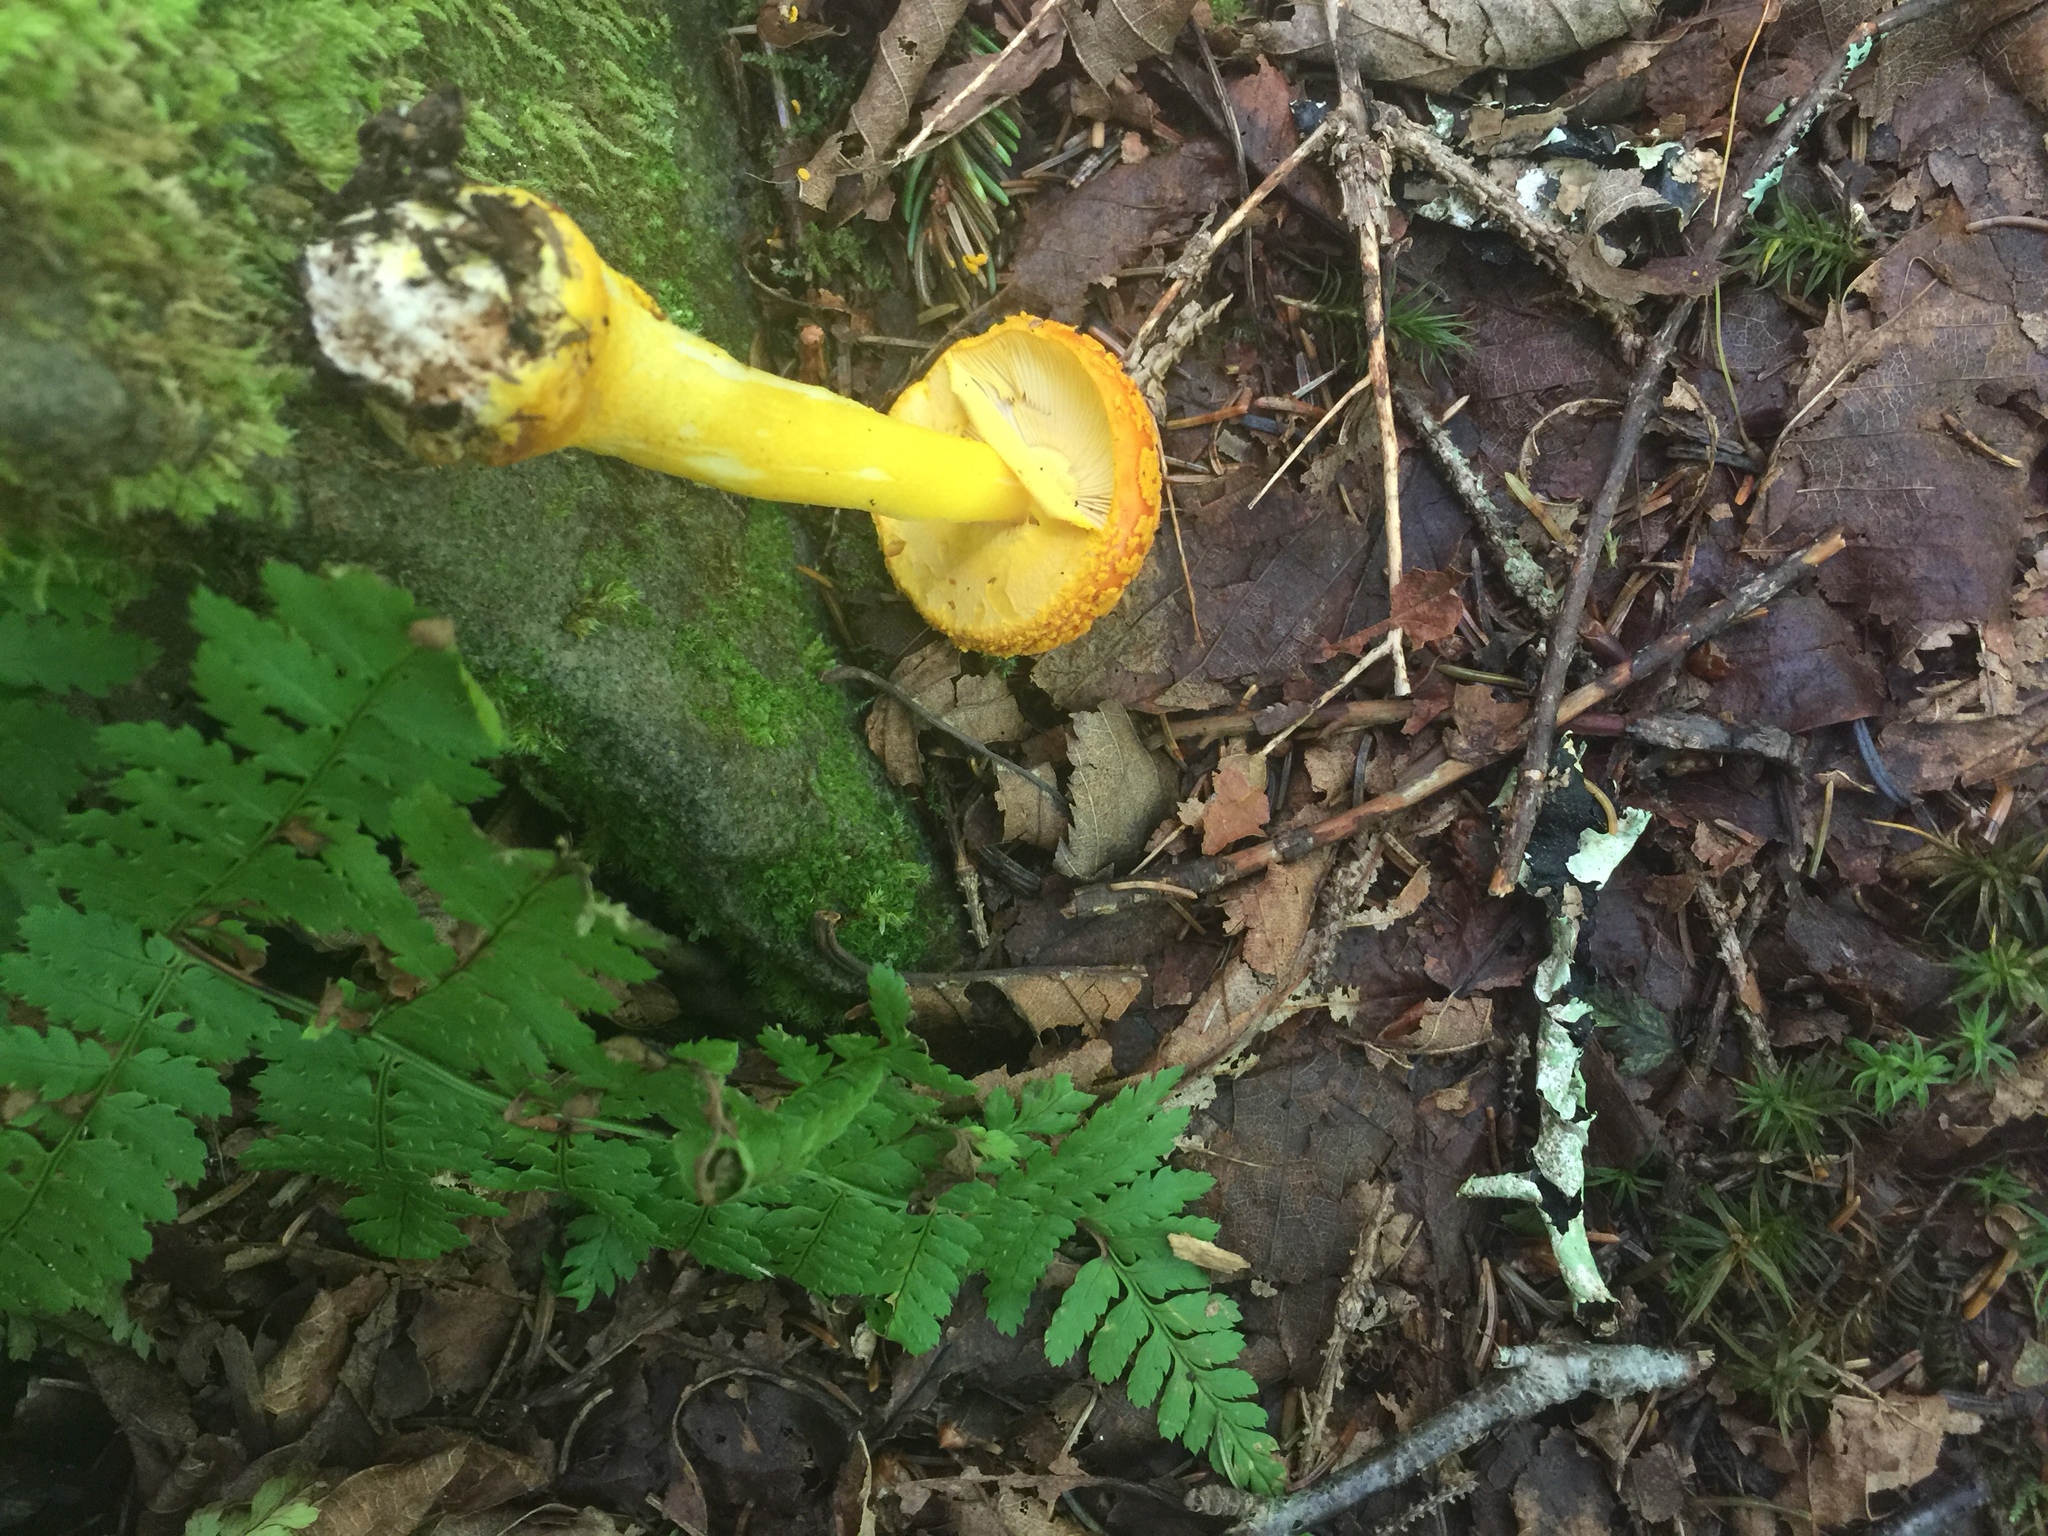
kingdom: Fungi
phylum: Basidiomycota
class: Agaricomycetes
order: Agaricales
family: Amanitaceae
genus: Amanita
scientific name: Amanita flavoconia
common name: Yellow patches
